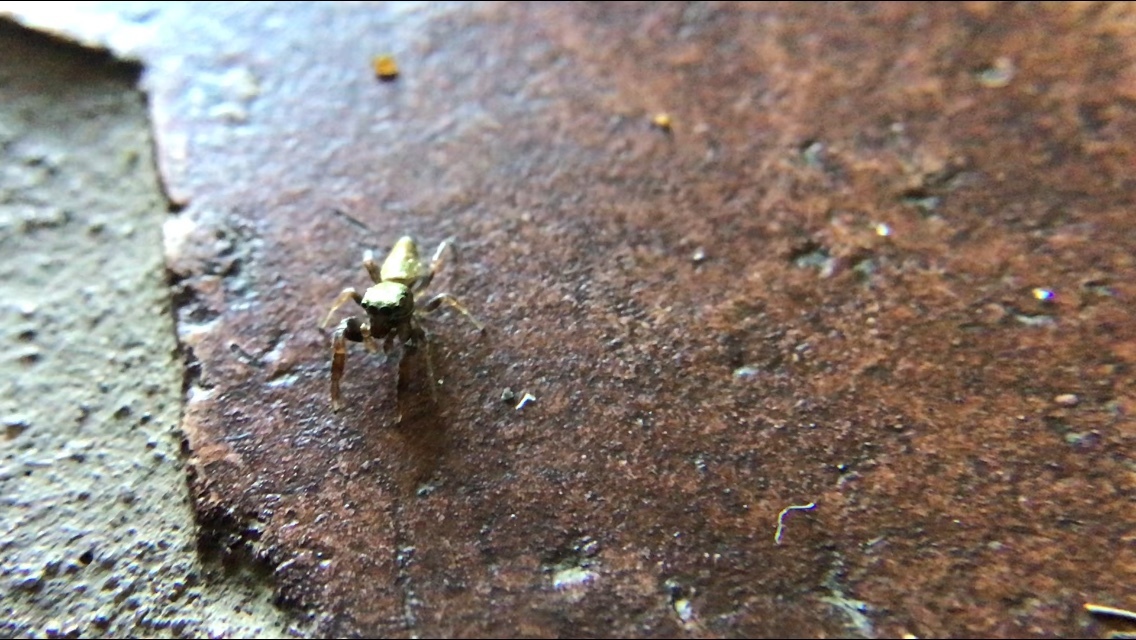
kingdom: Animalia
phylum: Arthropoda
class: Arachnida
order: Araneae
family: Salticidae
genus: Sassacus
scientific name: Sassacus vitis
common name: Jumping spiders
